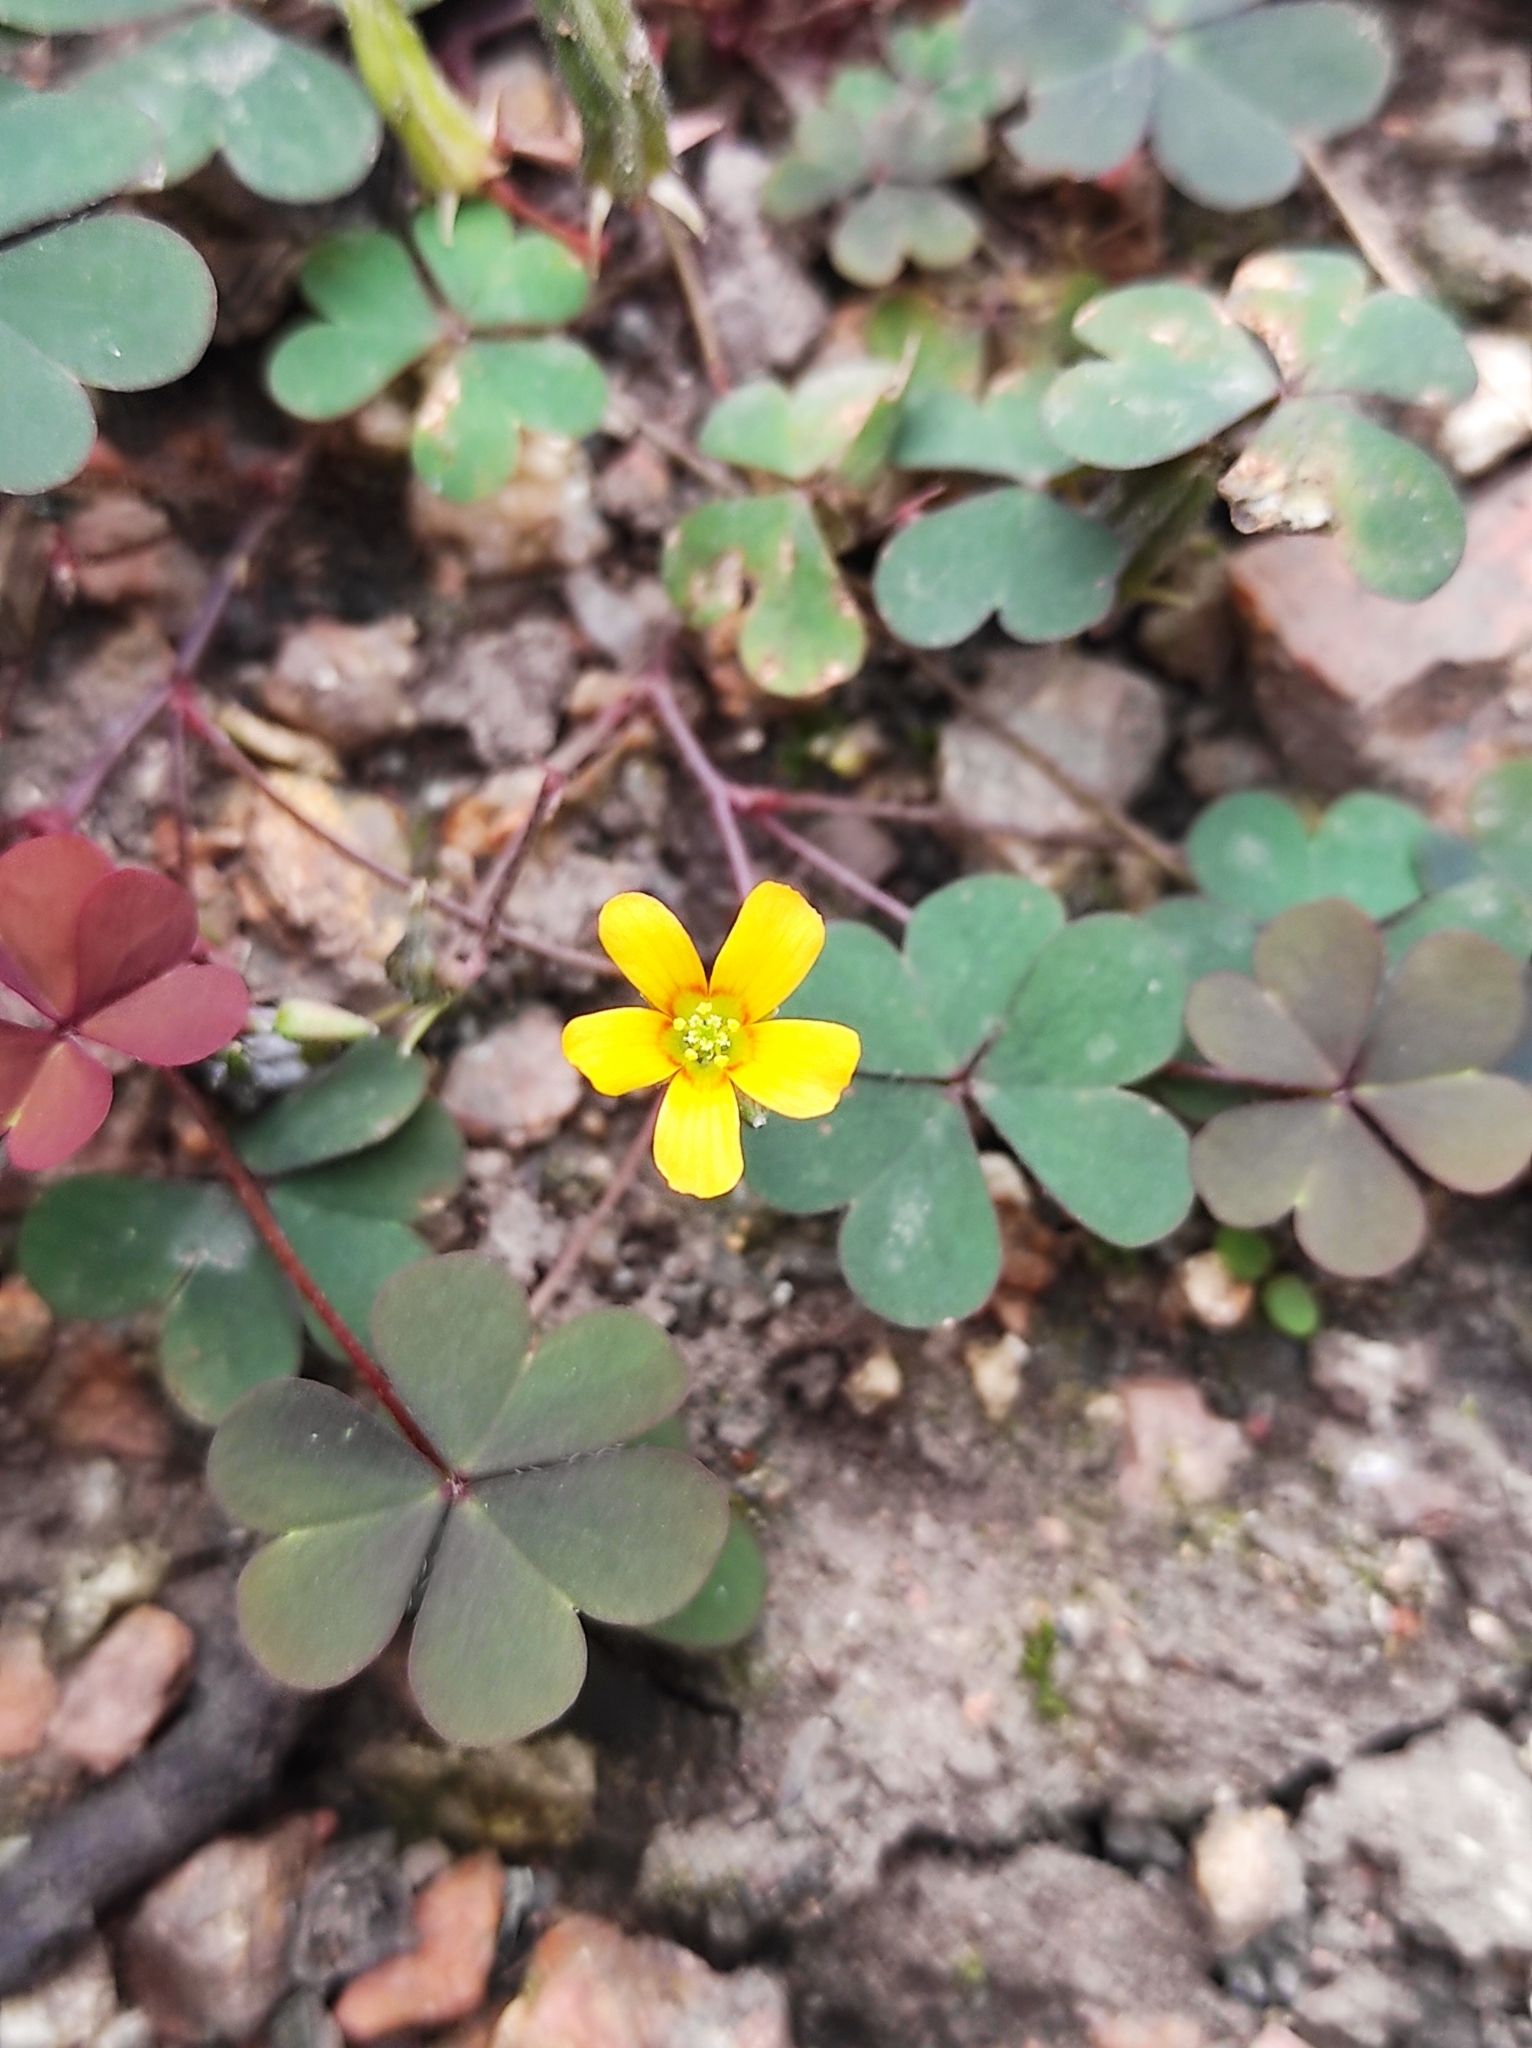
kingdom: Plantae
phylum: Tracheophyta
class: Magnoliopsida
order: Oxalidales
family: Oxalidaceae
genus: Oxalis
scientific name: Oxalis corniculata
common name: Procumbent yellow-sorrel
